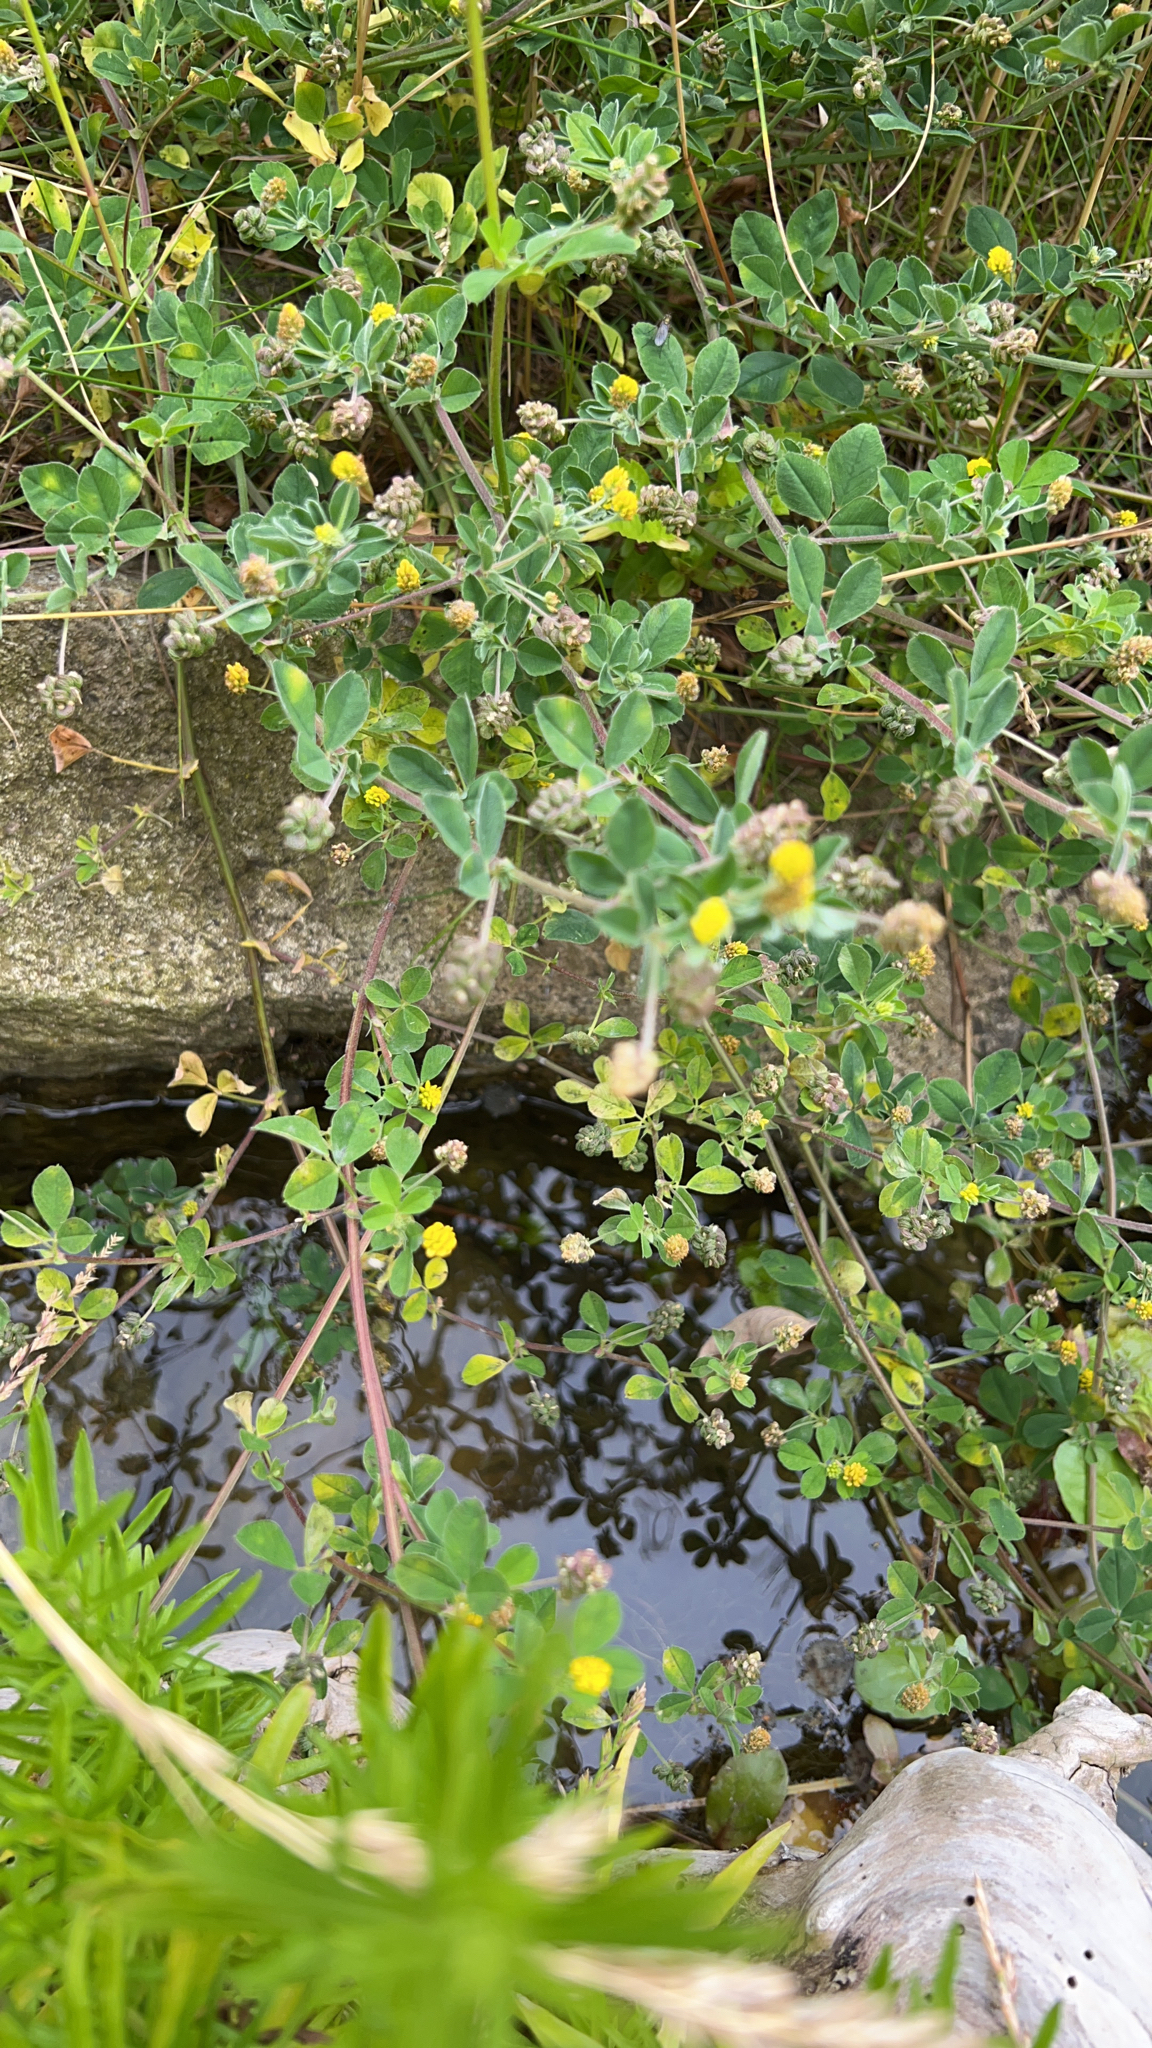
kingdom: Plantae
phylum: Tracheophyta
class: Magnoliopsida
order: Fabales
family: Fabaceae
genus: Medicago
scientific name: Medicago lupulina
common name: Black medick
